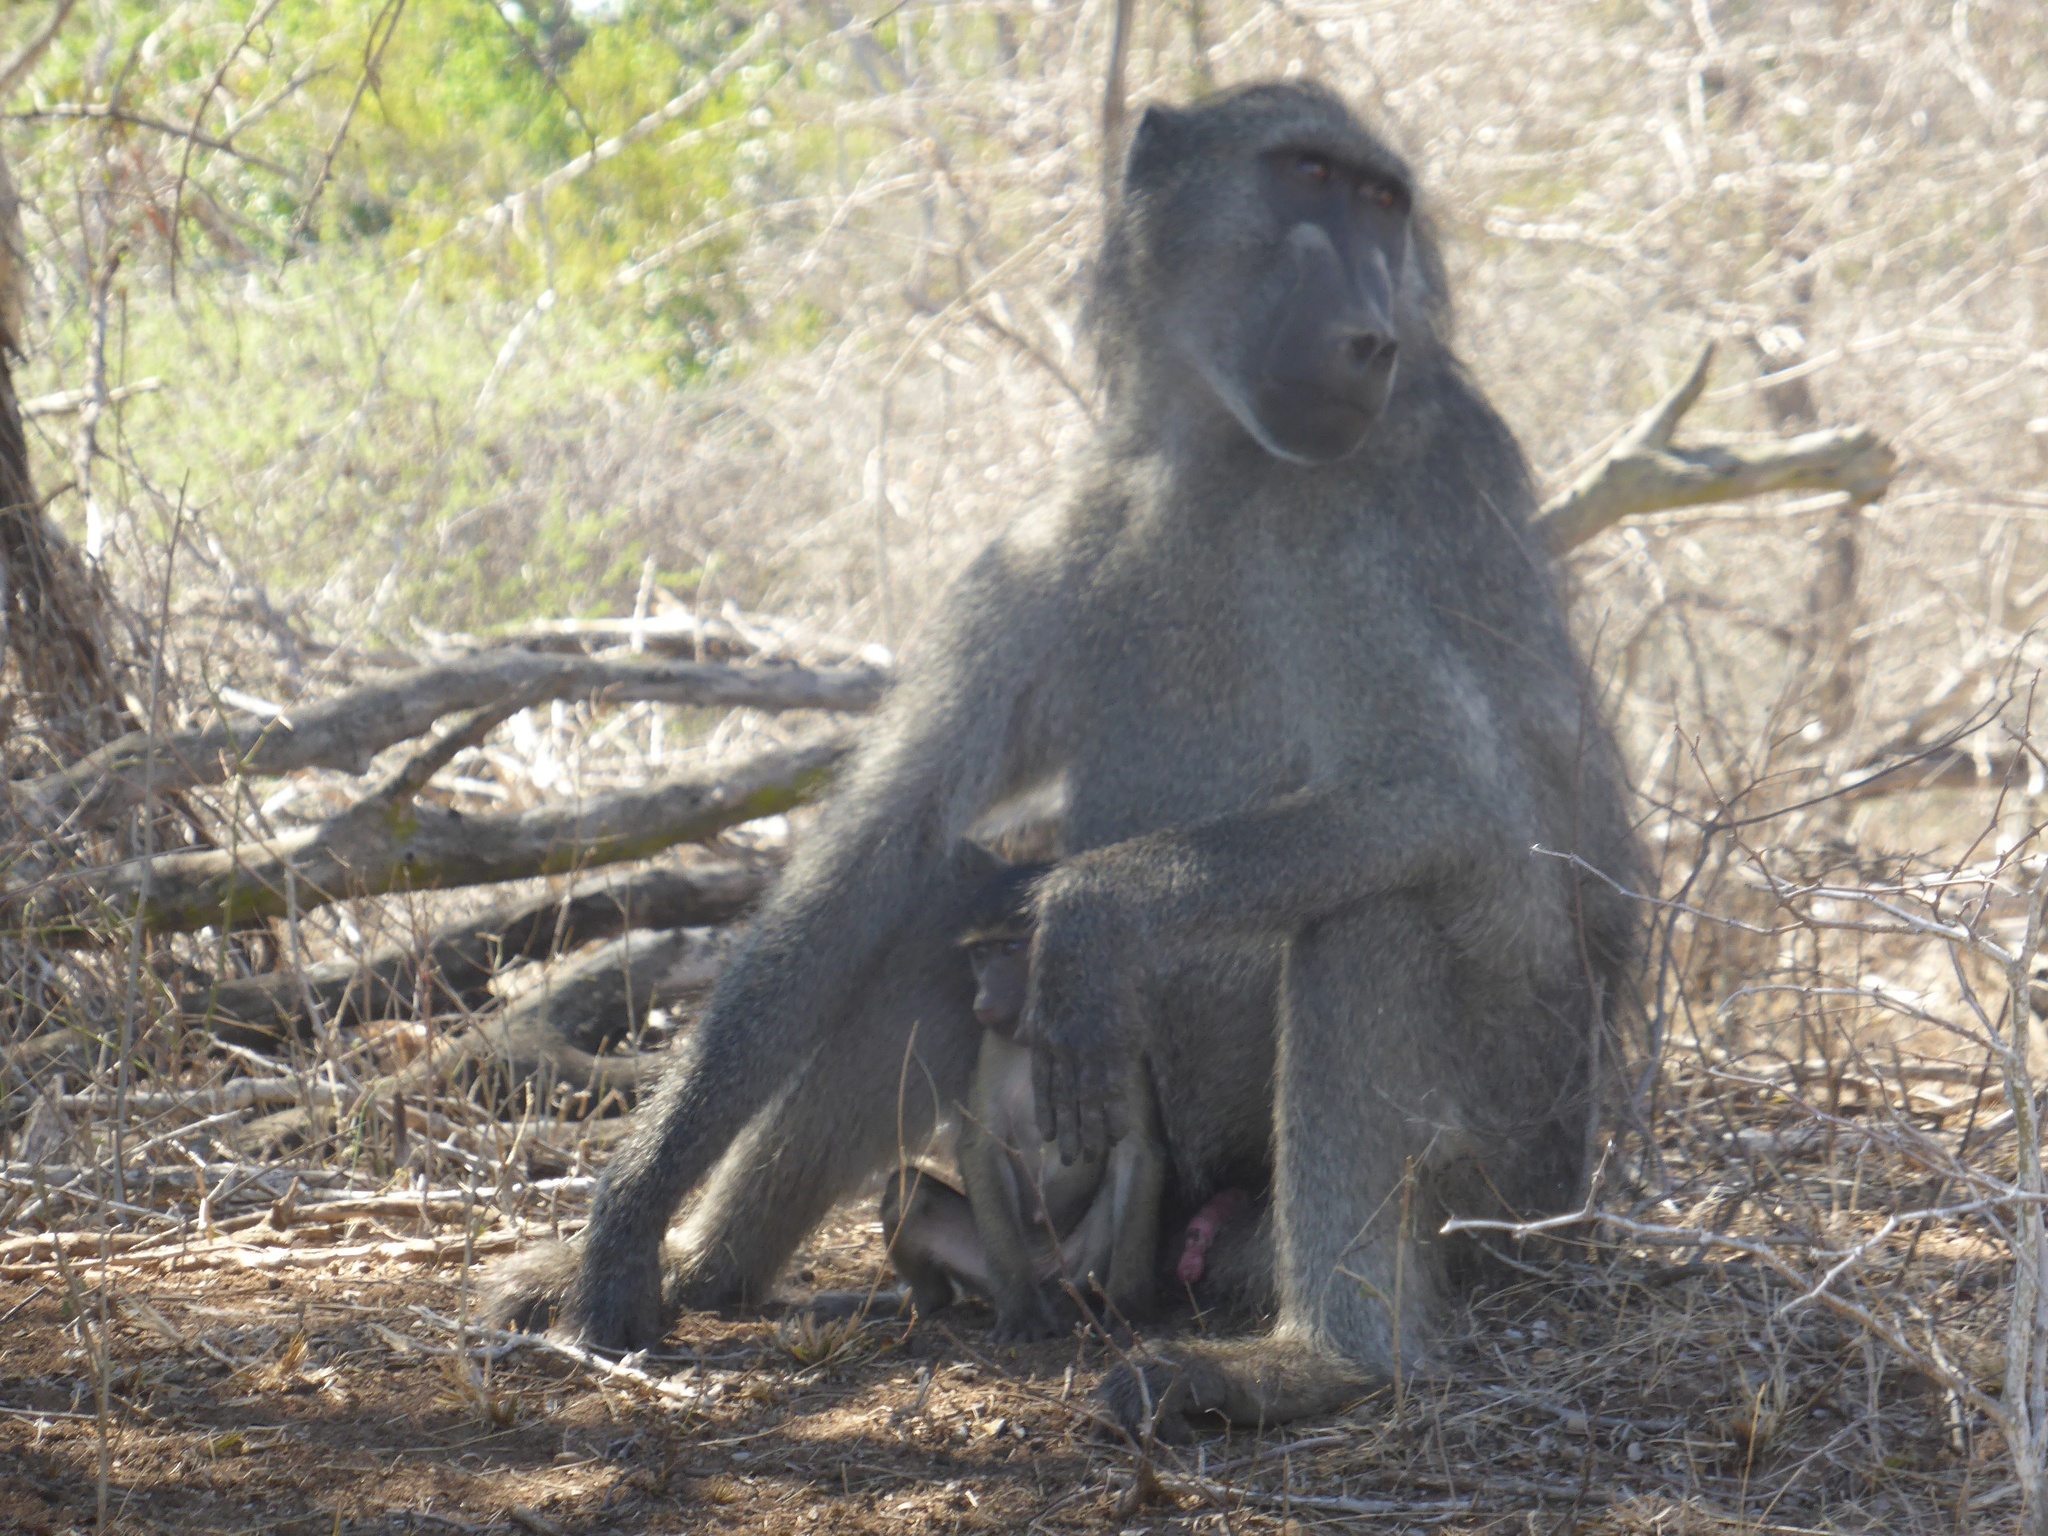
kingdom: Animalia
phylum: Chordata
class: Mammalia
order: Primates
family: Cercopithecidae
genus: Papio
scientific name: Papio ursinus
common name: Chacma baboon
